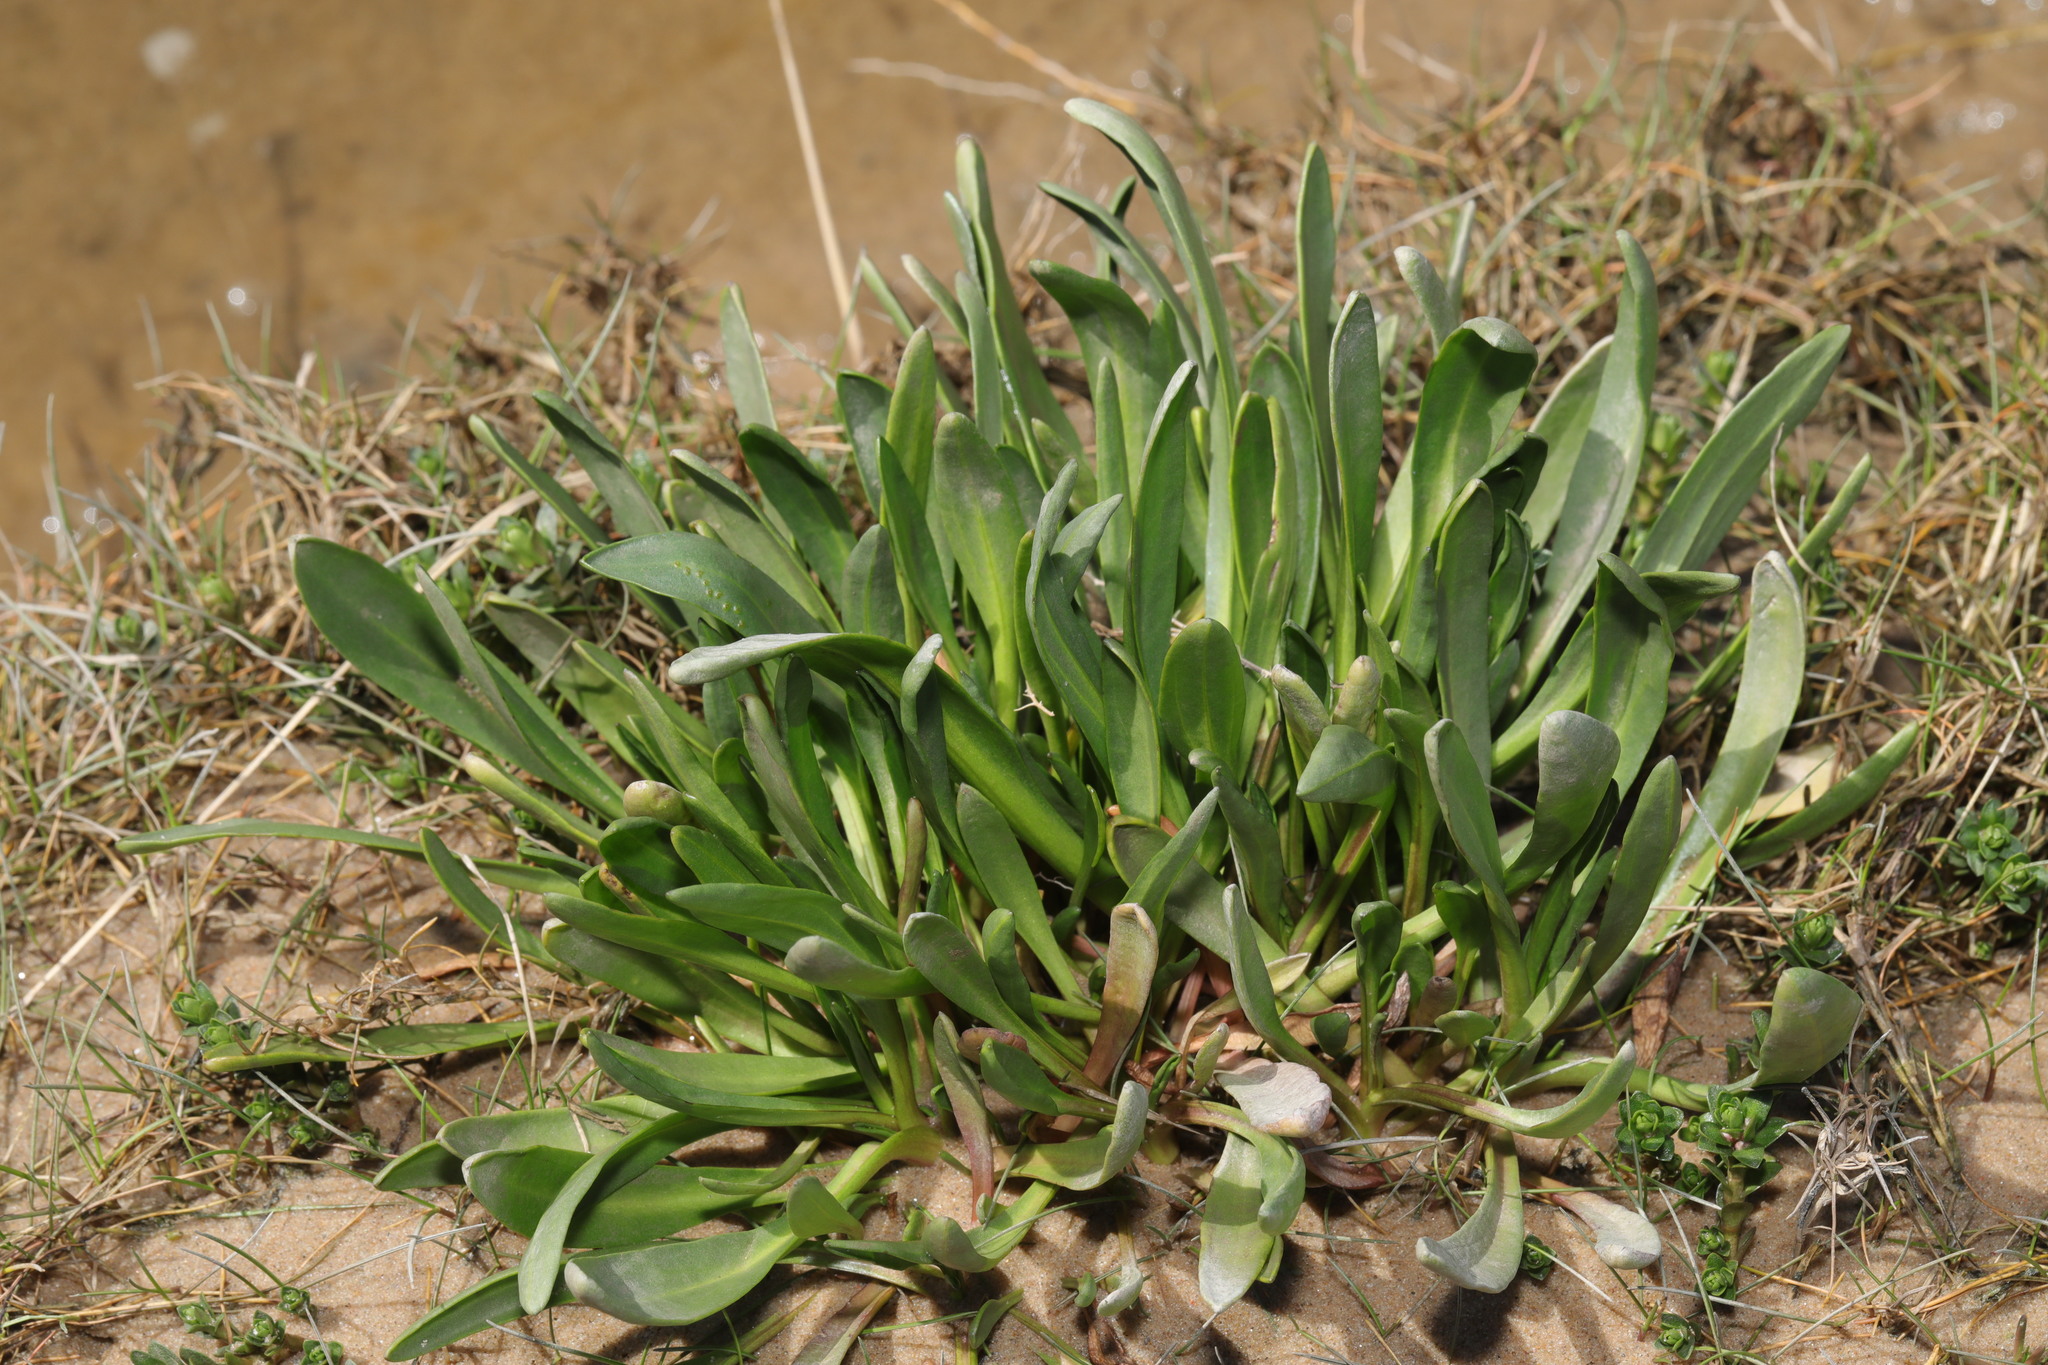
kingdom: Plantae
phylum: Tracheophyta
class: Magnoliopsida
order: Asterales
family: Asteraceae
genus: Tripolium
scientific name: Tripolium pannonicum
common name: Sea aster
